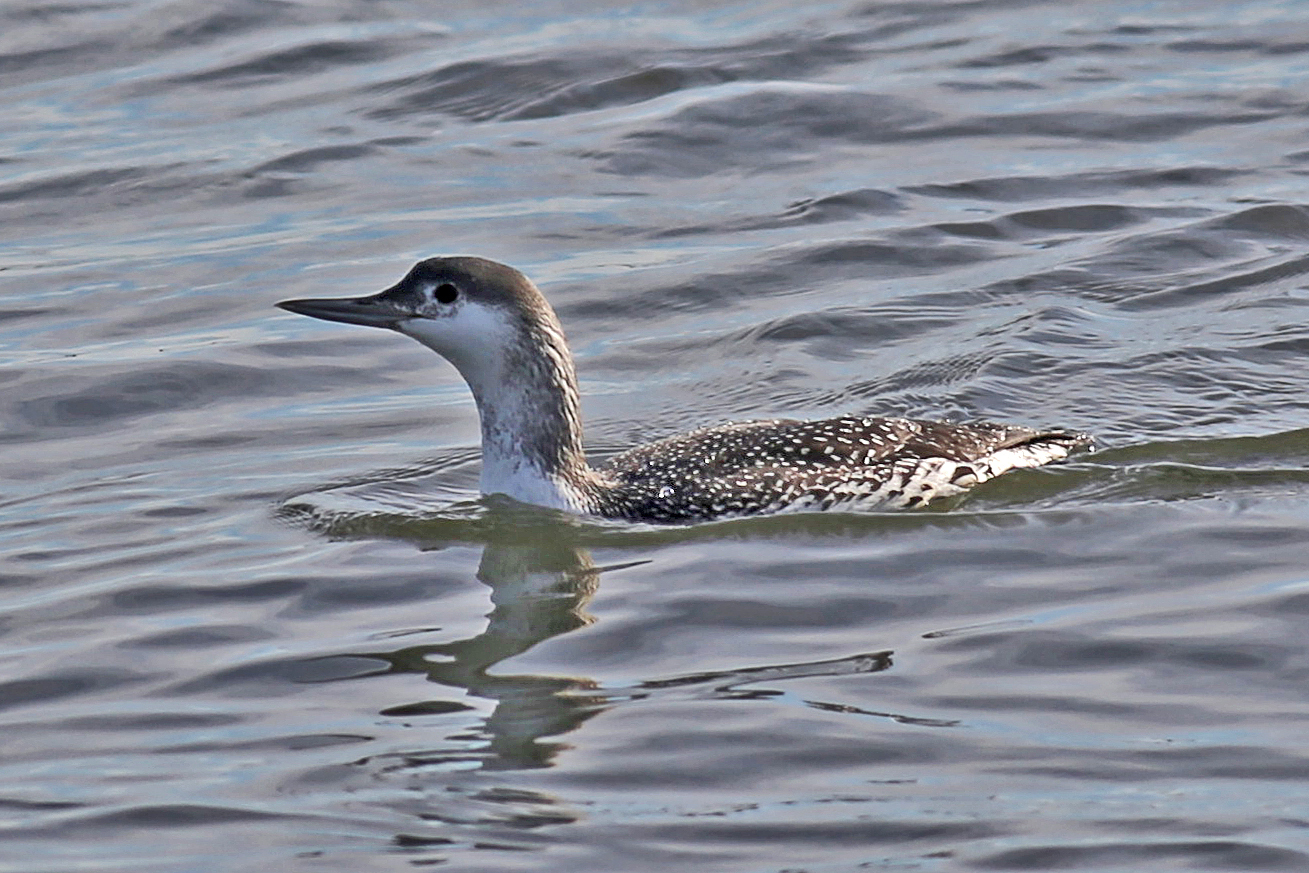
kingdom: Animalia
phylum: Chordata
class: Aves
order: Gaviiformes
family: Gaviidae
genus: Gavia
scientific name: Gavia stellata
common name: Red-throated loon
